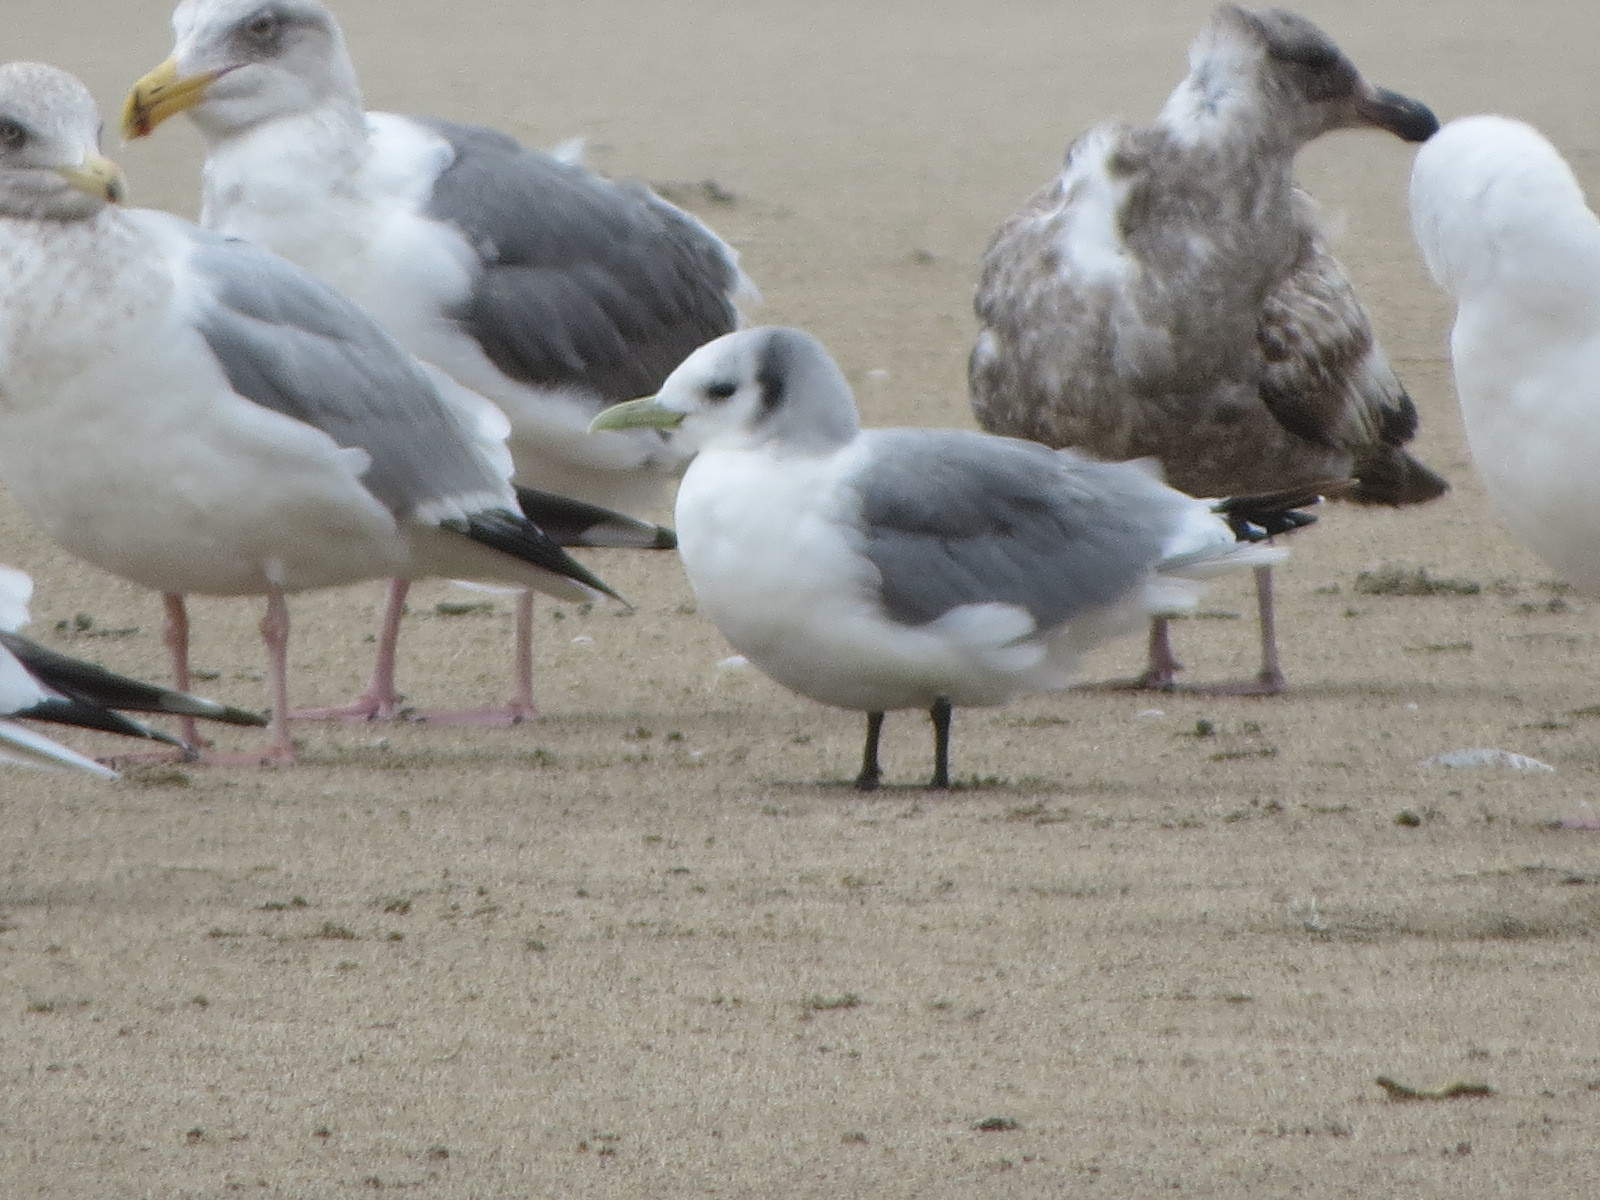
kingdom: Animalia
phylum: Chordata
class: Aves
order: Charadriiformes
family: Laridae
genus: Rissa
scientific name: Rissa tridactyla
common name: Black-legged kittiwake
